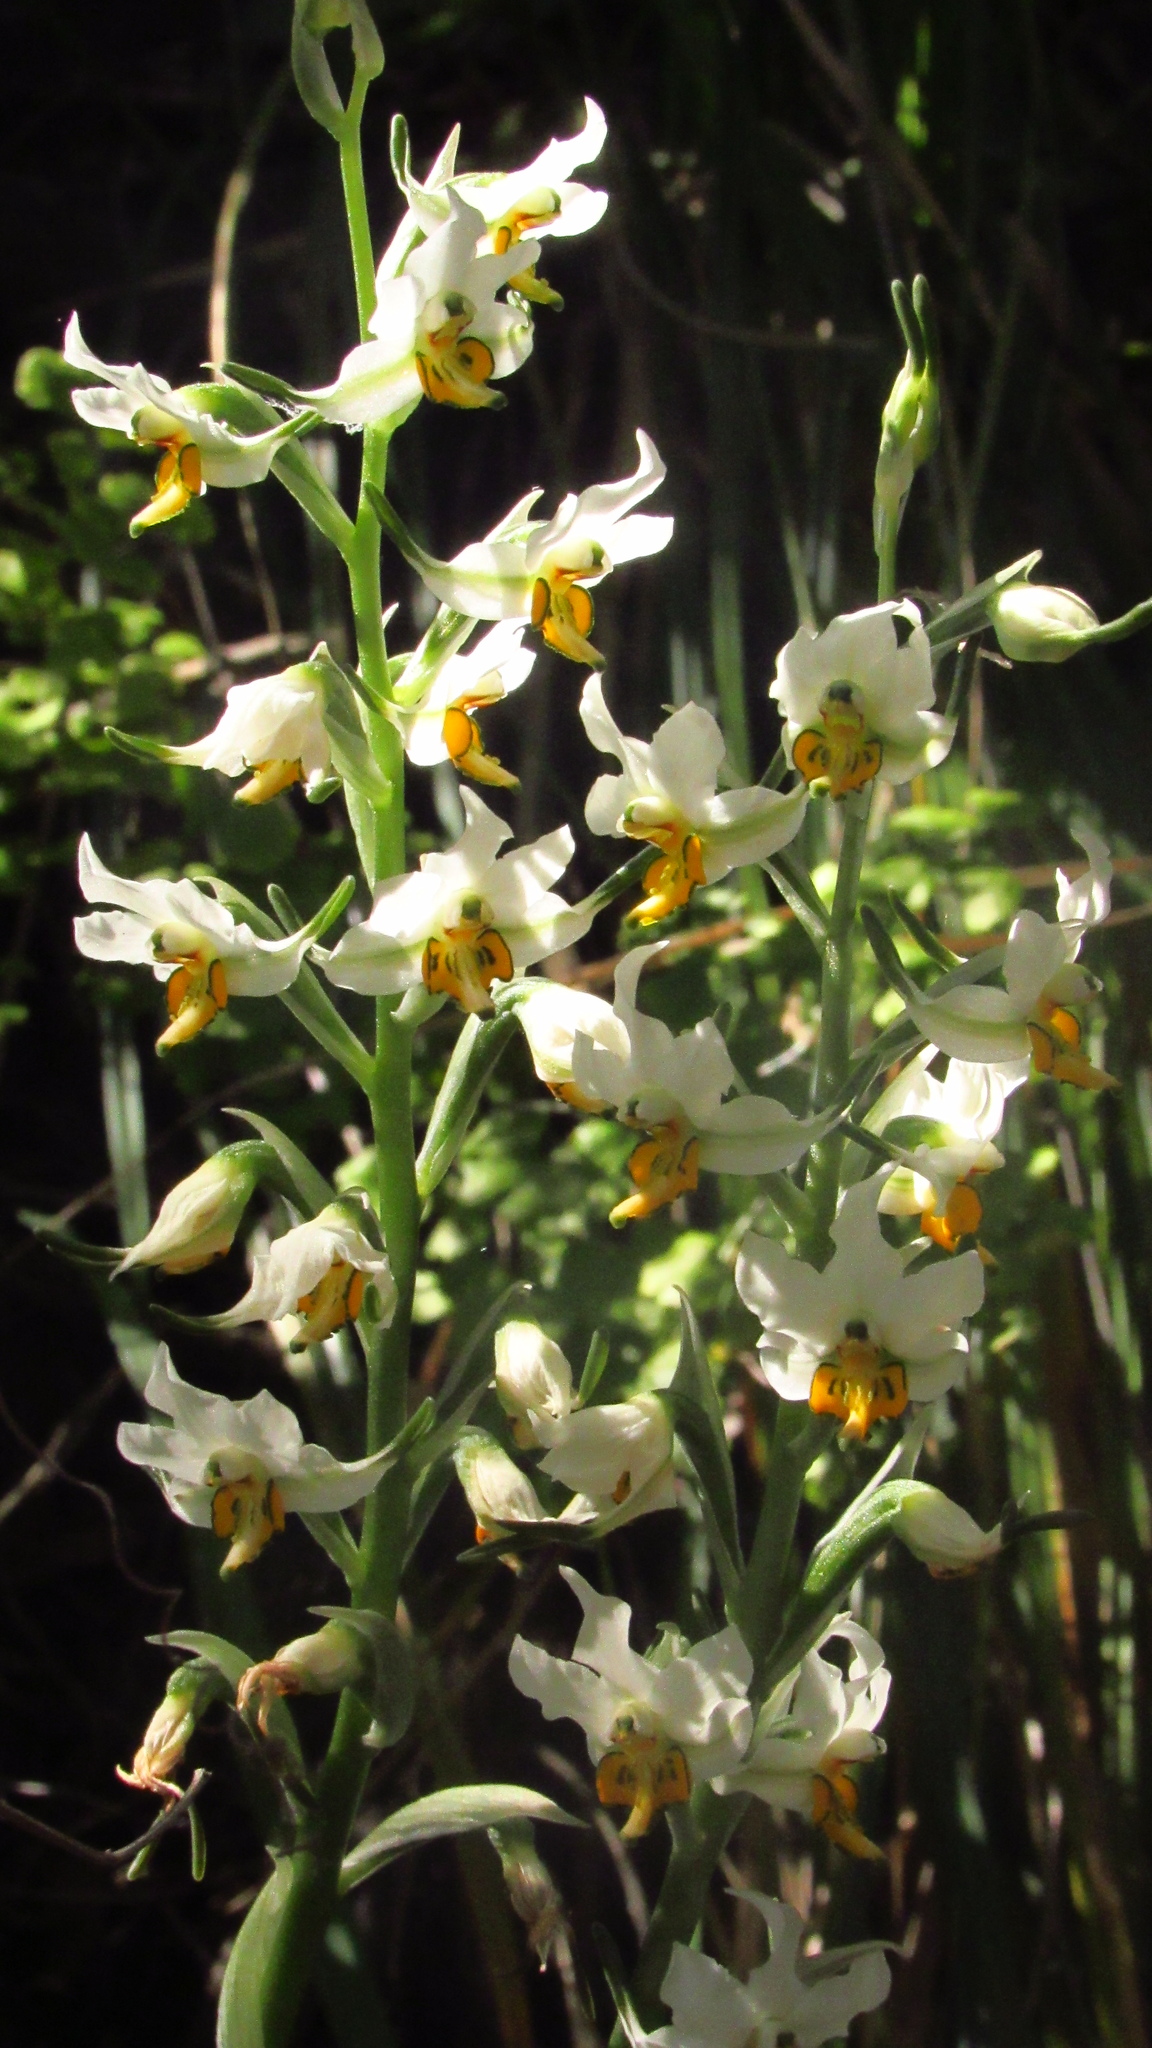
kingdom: Plantae
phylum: Tracheophyta
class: Liliopsida
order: Asparagales
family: Orchidaceae
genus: Gavilea
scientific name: Gavilea longibracteata
